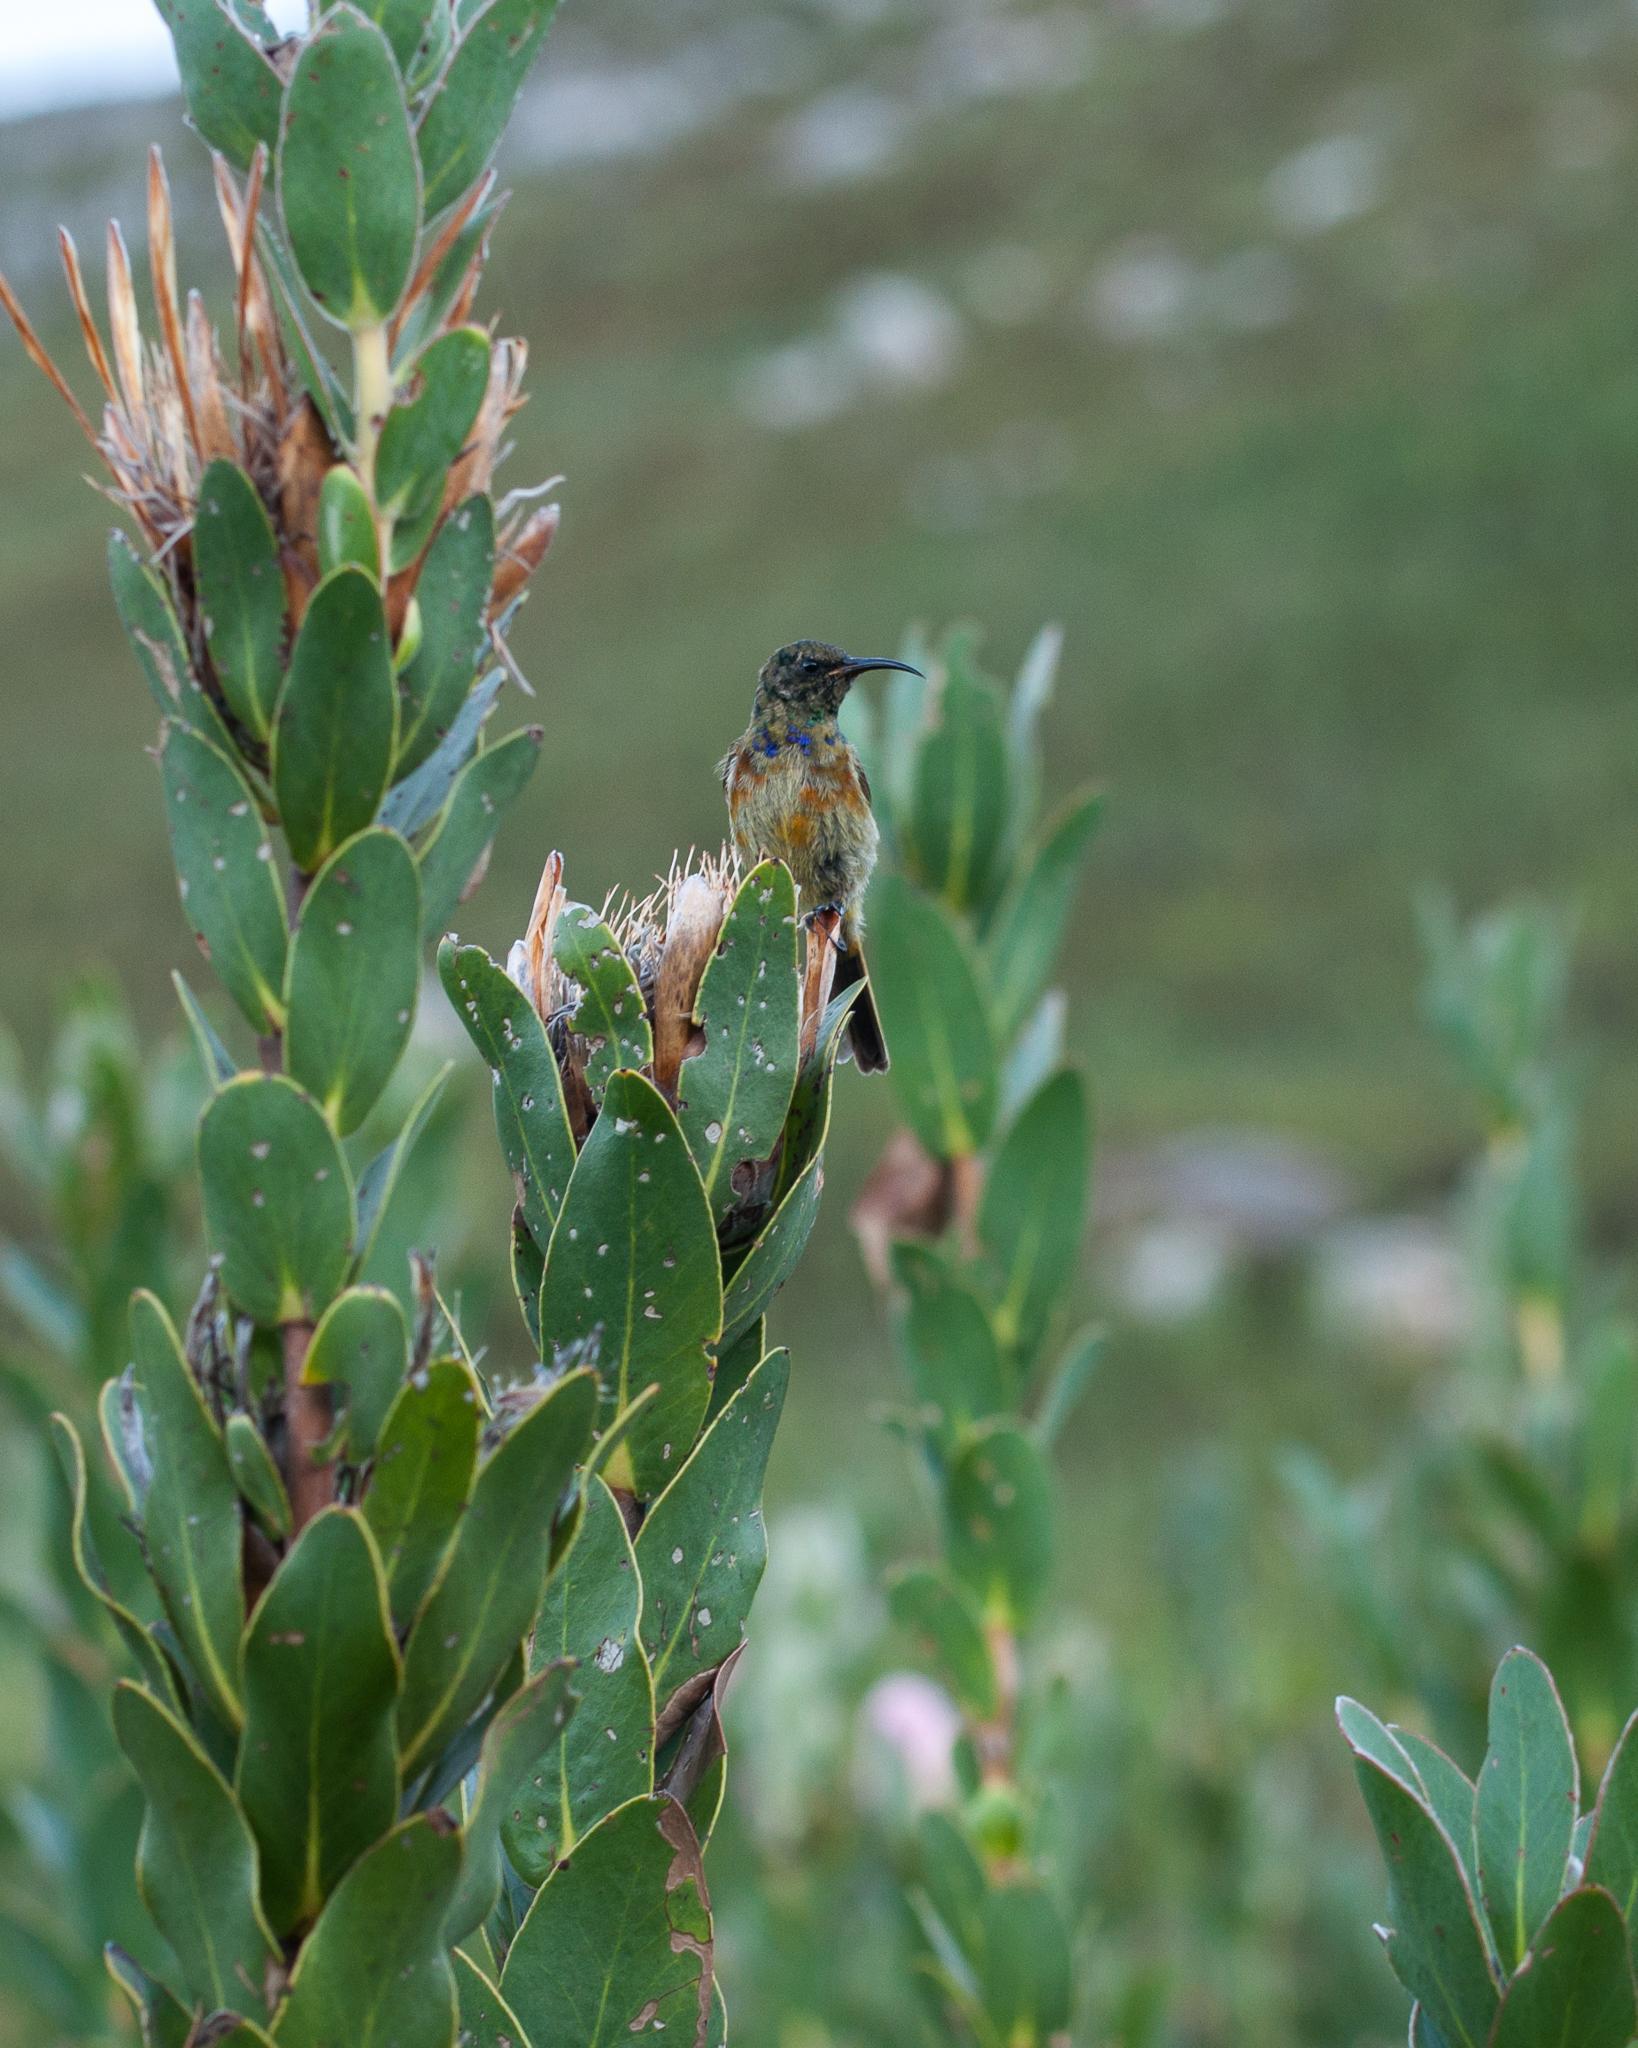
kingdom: Animalia
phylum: Chordata
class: Aves
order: Passeriformes
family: Nectariniidae
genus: Anthobaphes
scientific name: Anthobaphes violacea
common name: Orange-breasted sunbird
